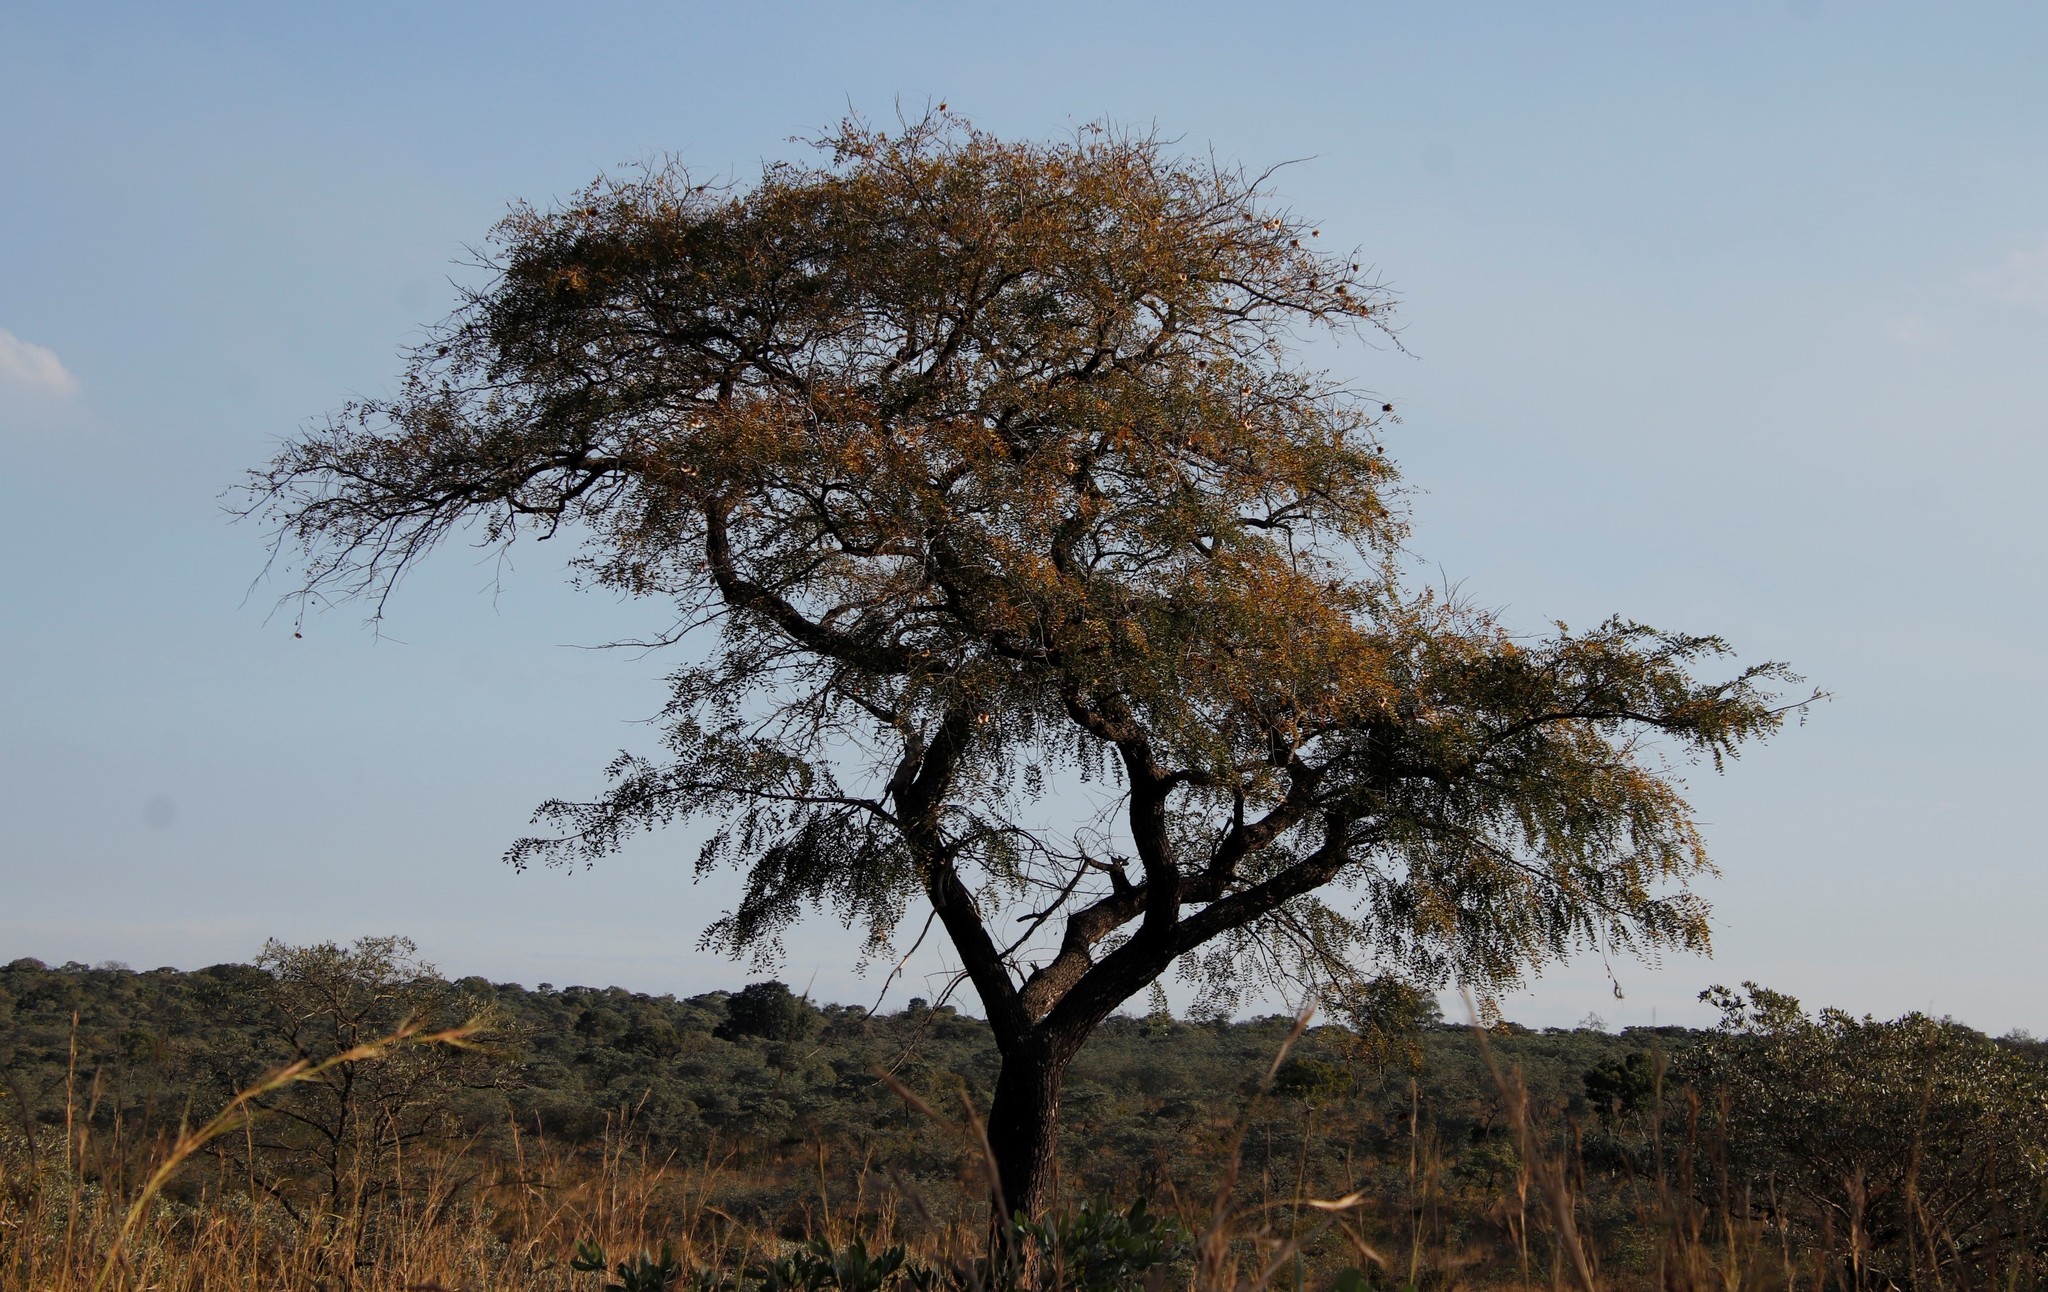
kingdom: Plantae
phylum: Tracheophyta
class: Magnoliopsida
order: Fabales
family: Fabaceae
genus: Pterocarpus
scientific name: Pterocarpus angolensis
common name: Bloodwood tree
